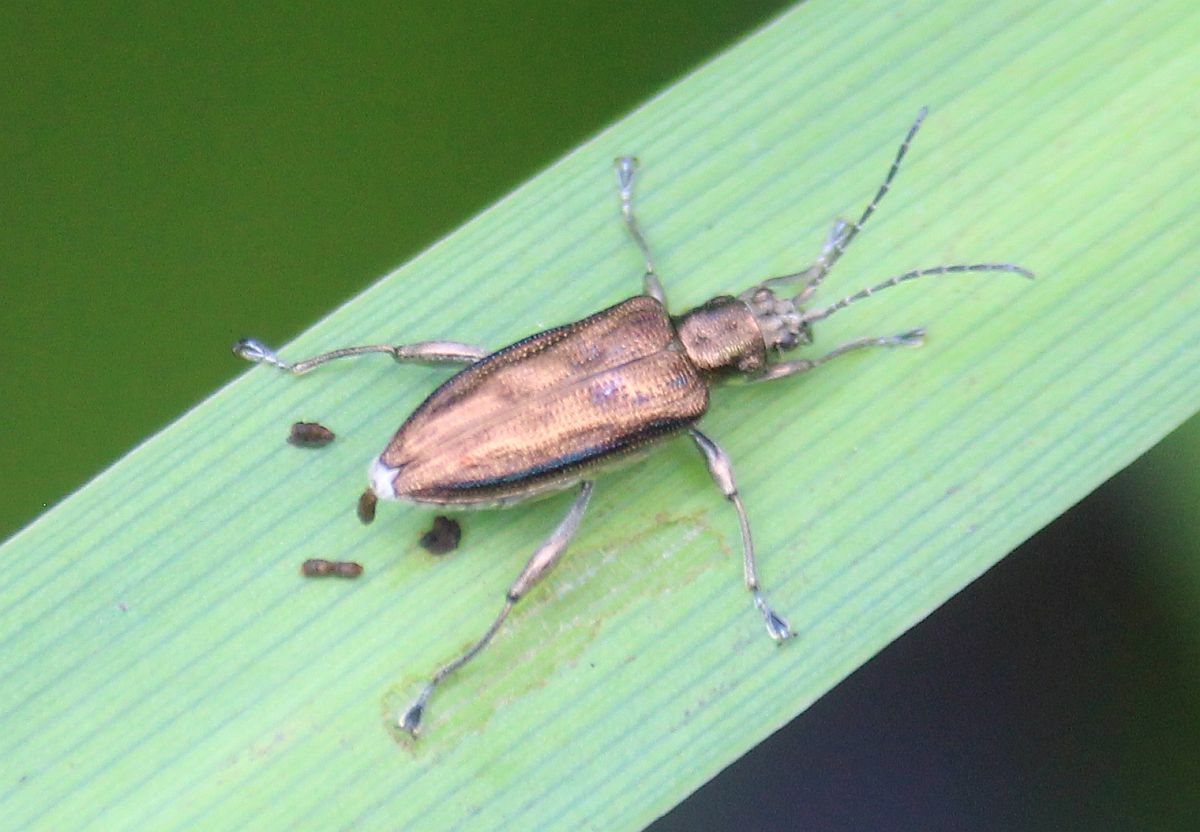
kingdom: Animalia
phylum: Arthropoda
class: Insecta
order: Coleoptera
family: Chrysomelidae
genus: Donacia
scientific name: Donacia marginata
